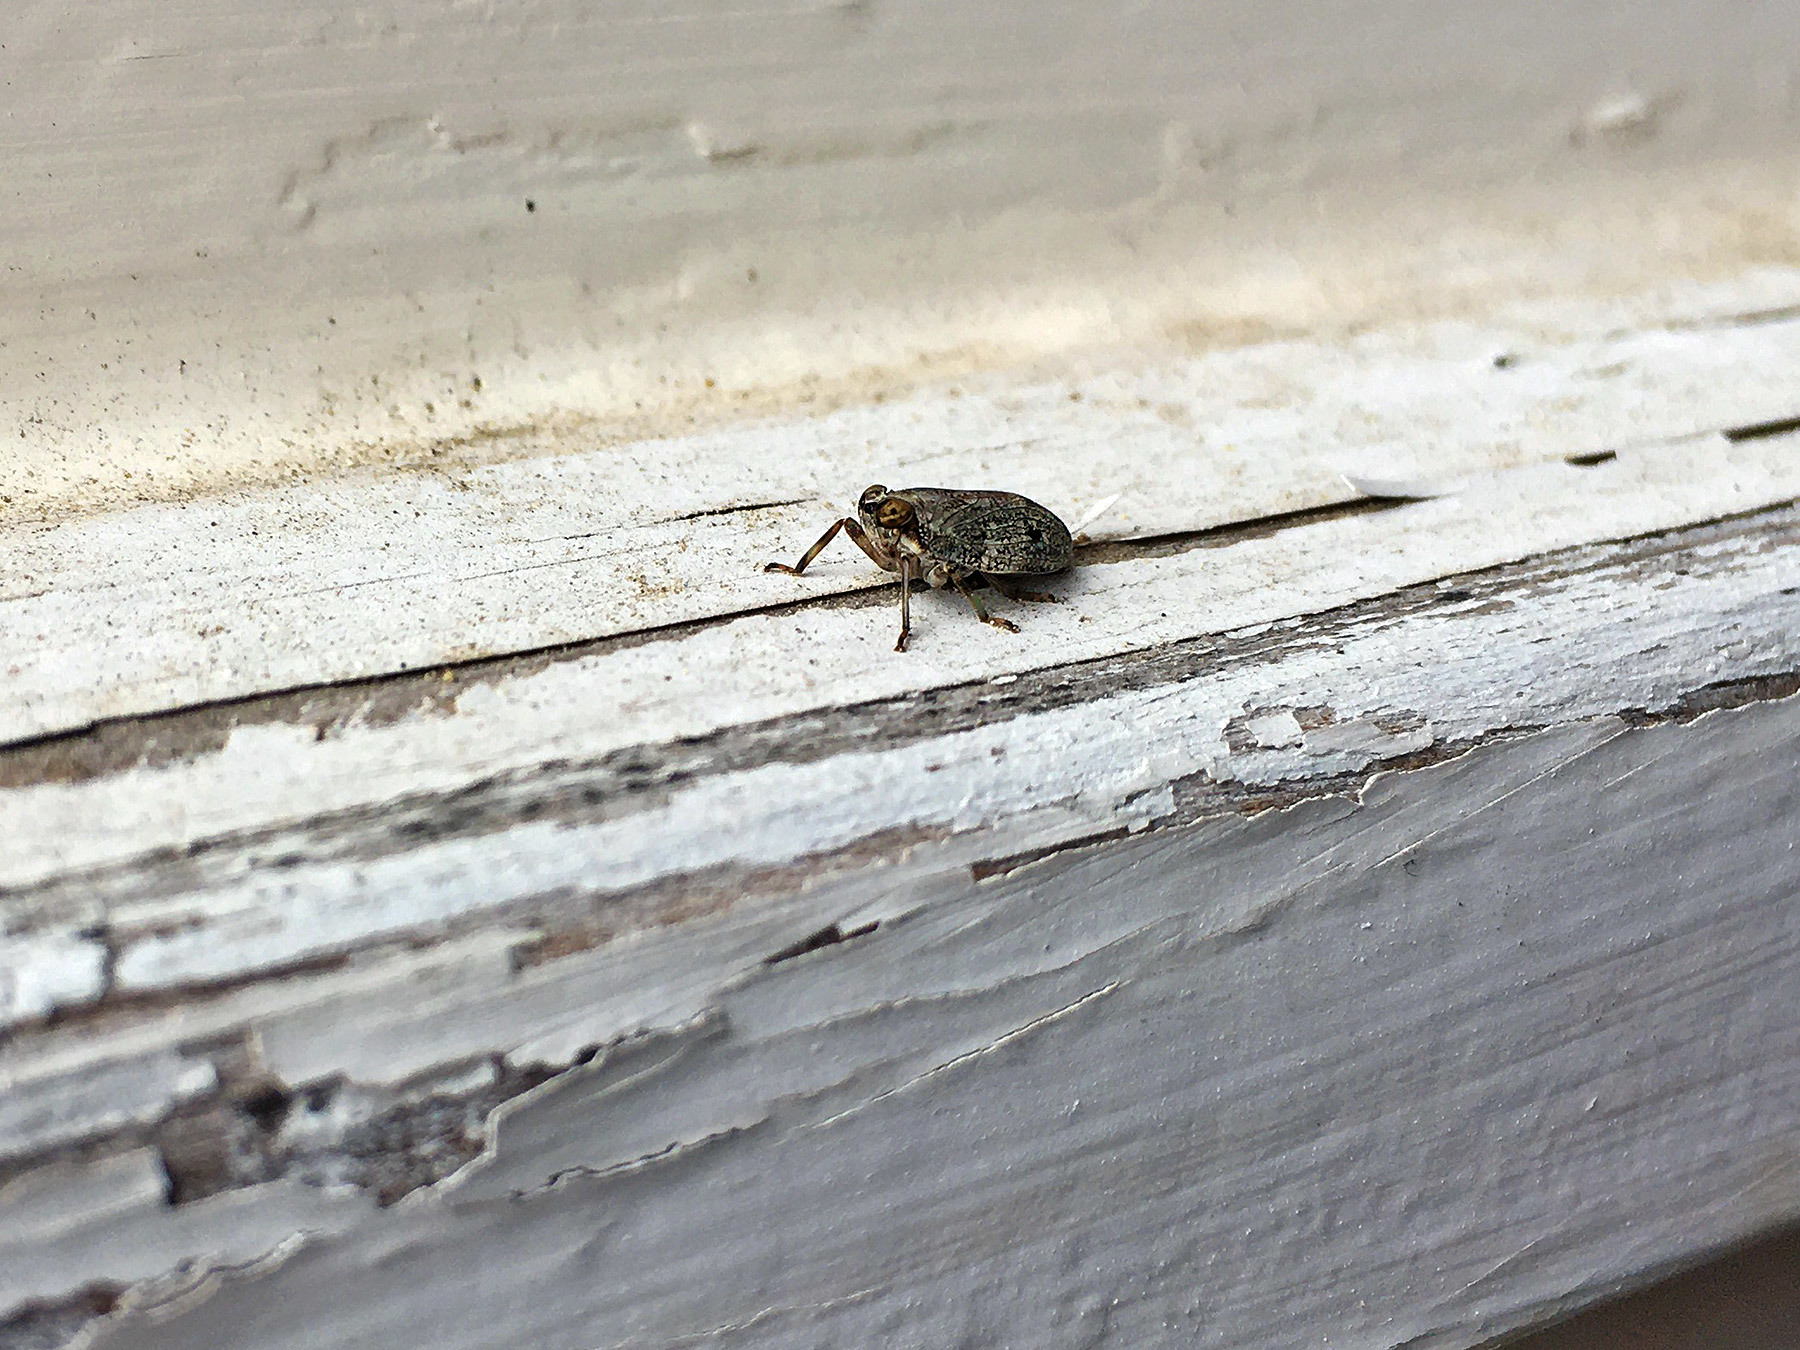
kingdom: Animalia
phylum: Arthropoda
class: Insecta
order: Hemiptera
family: Issidae
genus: Issus
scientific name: Issus coleoptratus
